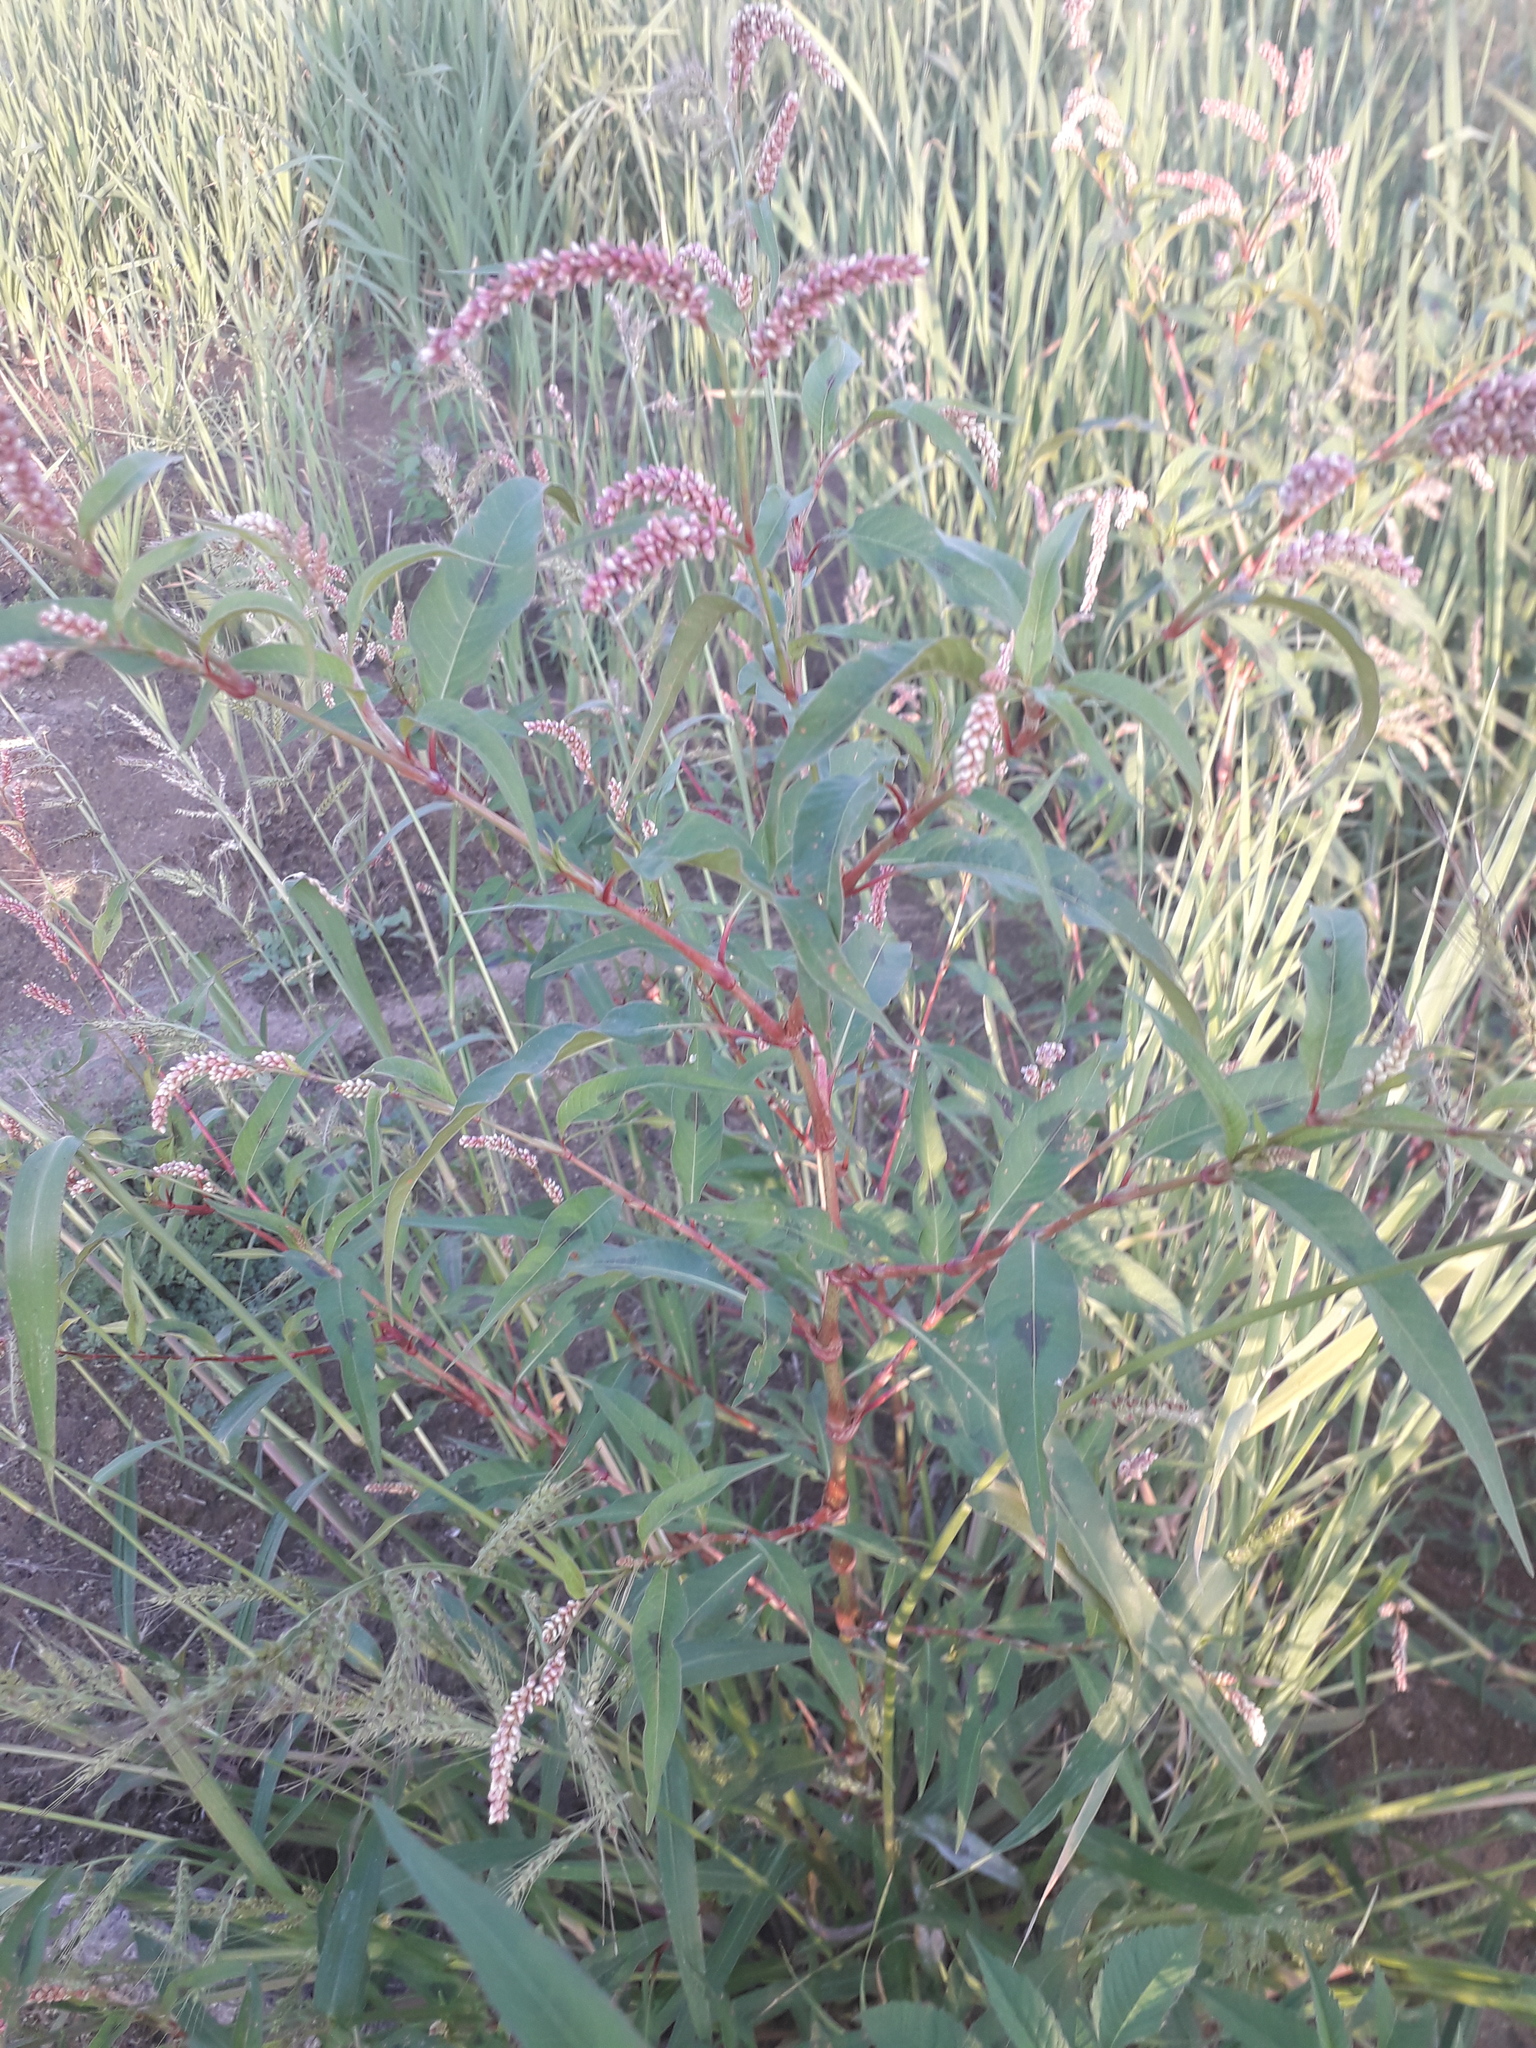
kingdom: Plantae
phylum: Tracheophyta
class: Magnoliopsida
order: Caryophyllales
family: Polygonaceae
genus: Persicaria
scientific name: Persicaria maculosa
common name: Redshank
